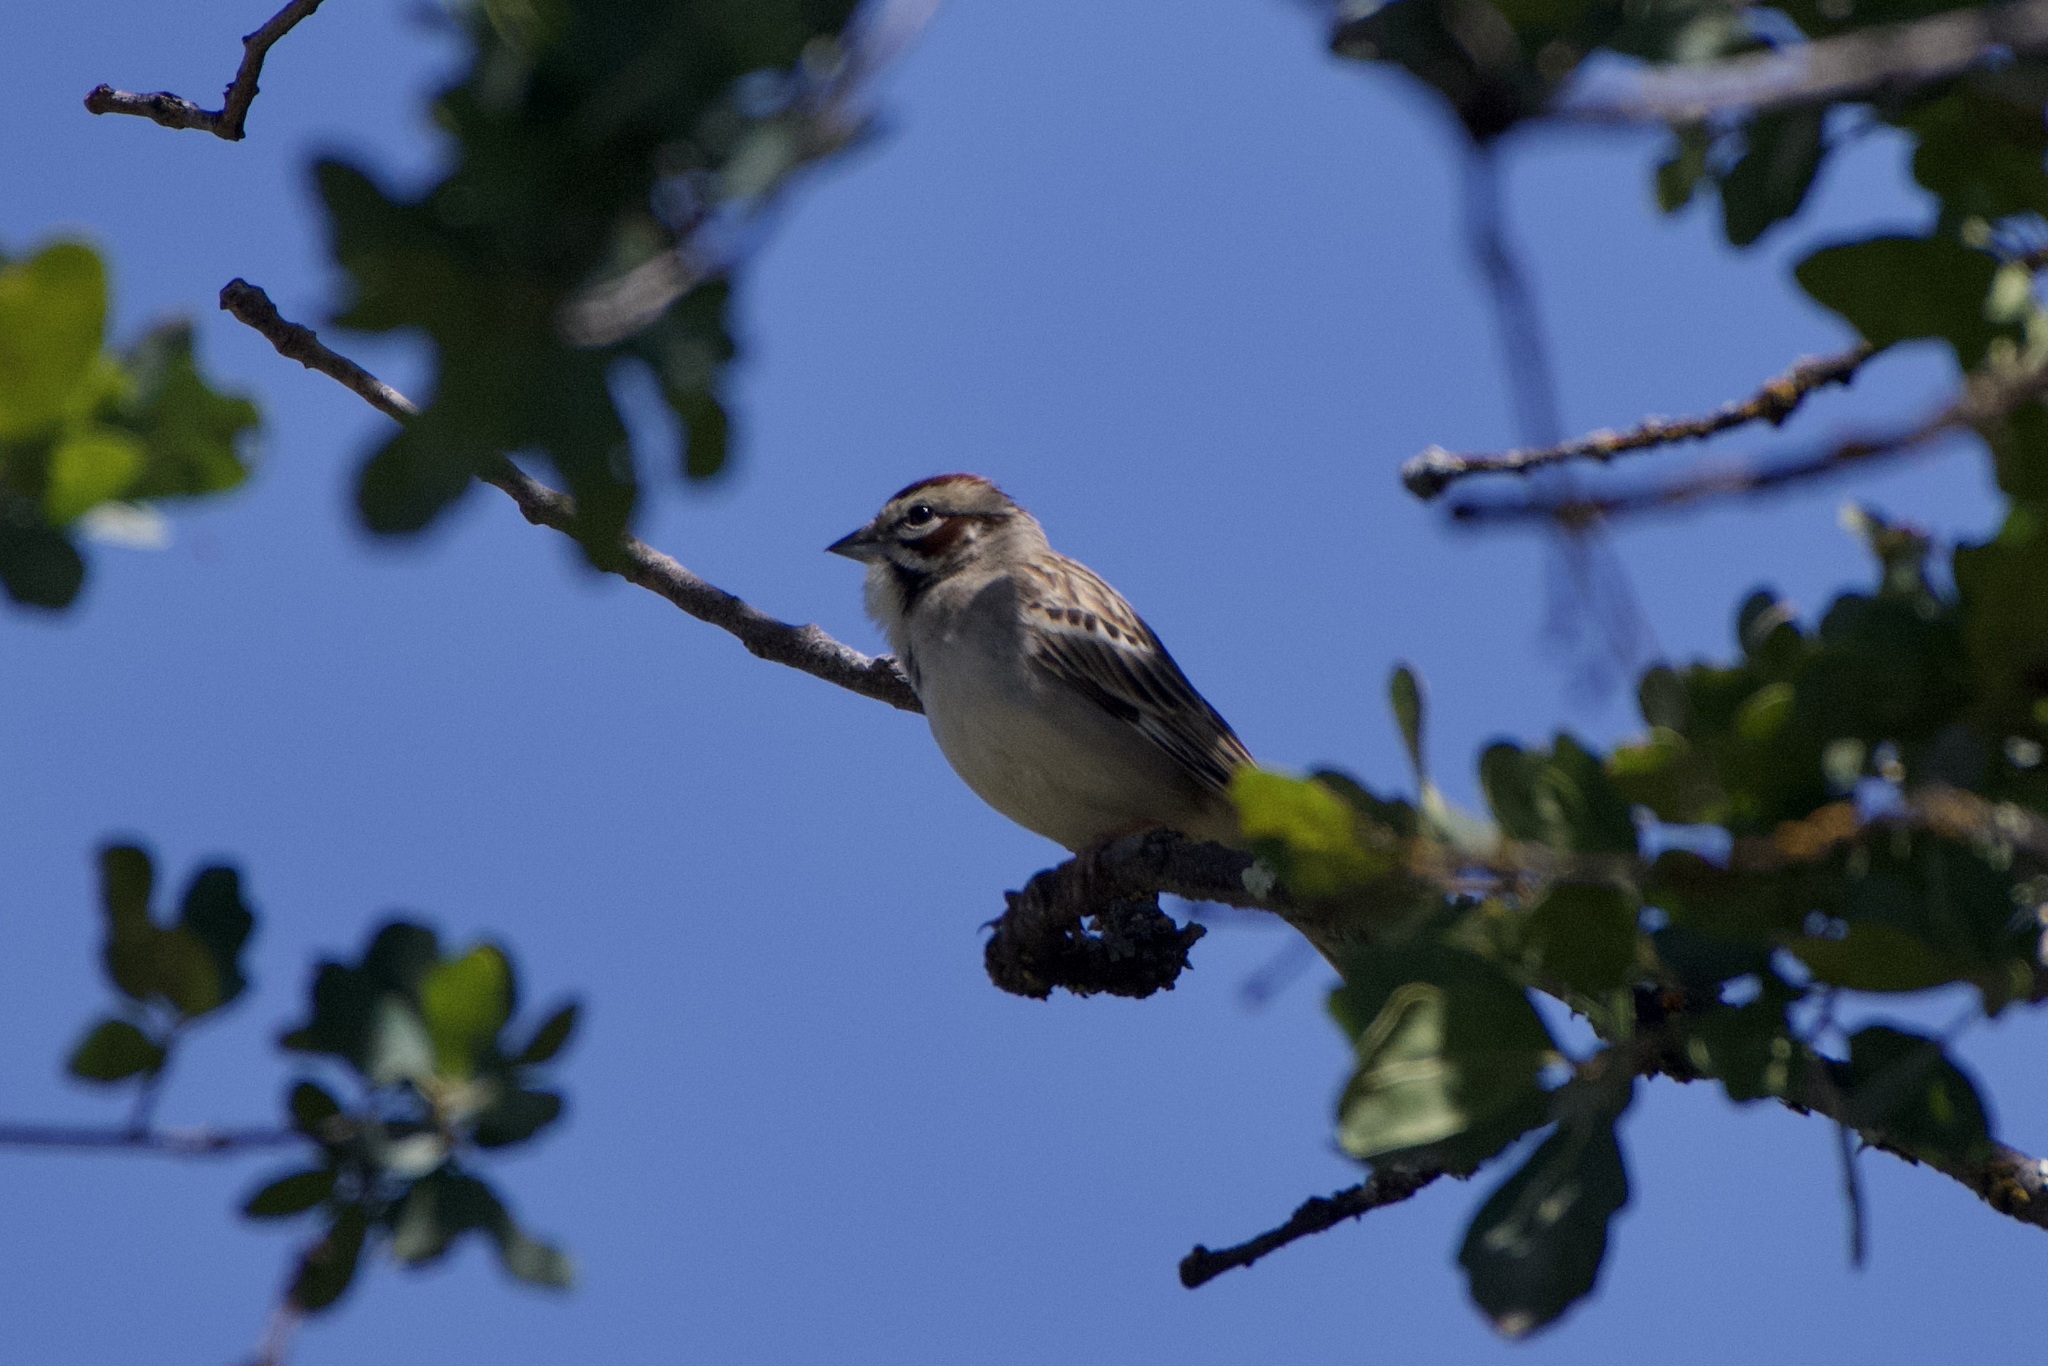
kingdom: Animalia
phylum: Chordata
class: Aves
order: Passeriformes
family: Passerellidae
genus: Chondestes
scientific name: Chondestes grammacus
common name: Lark sparrow
